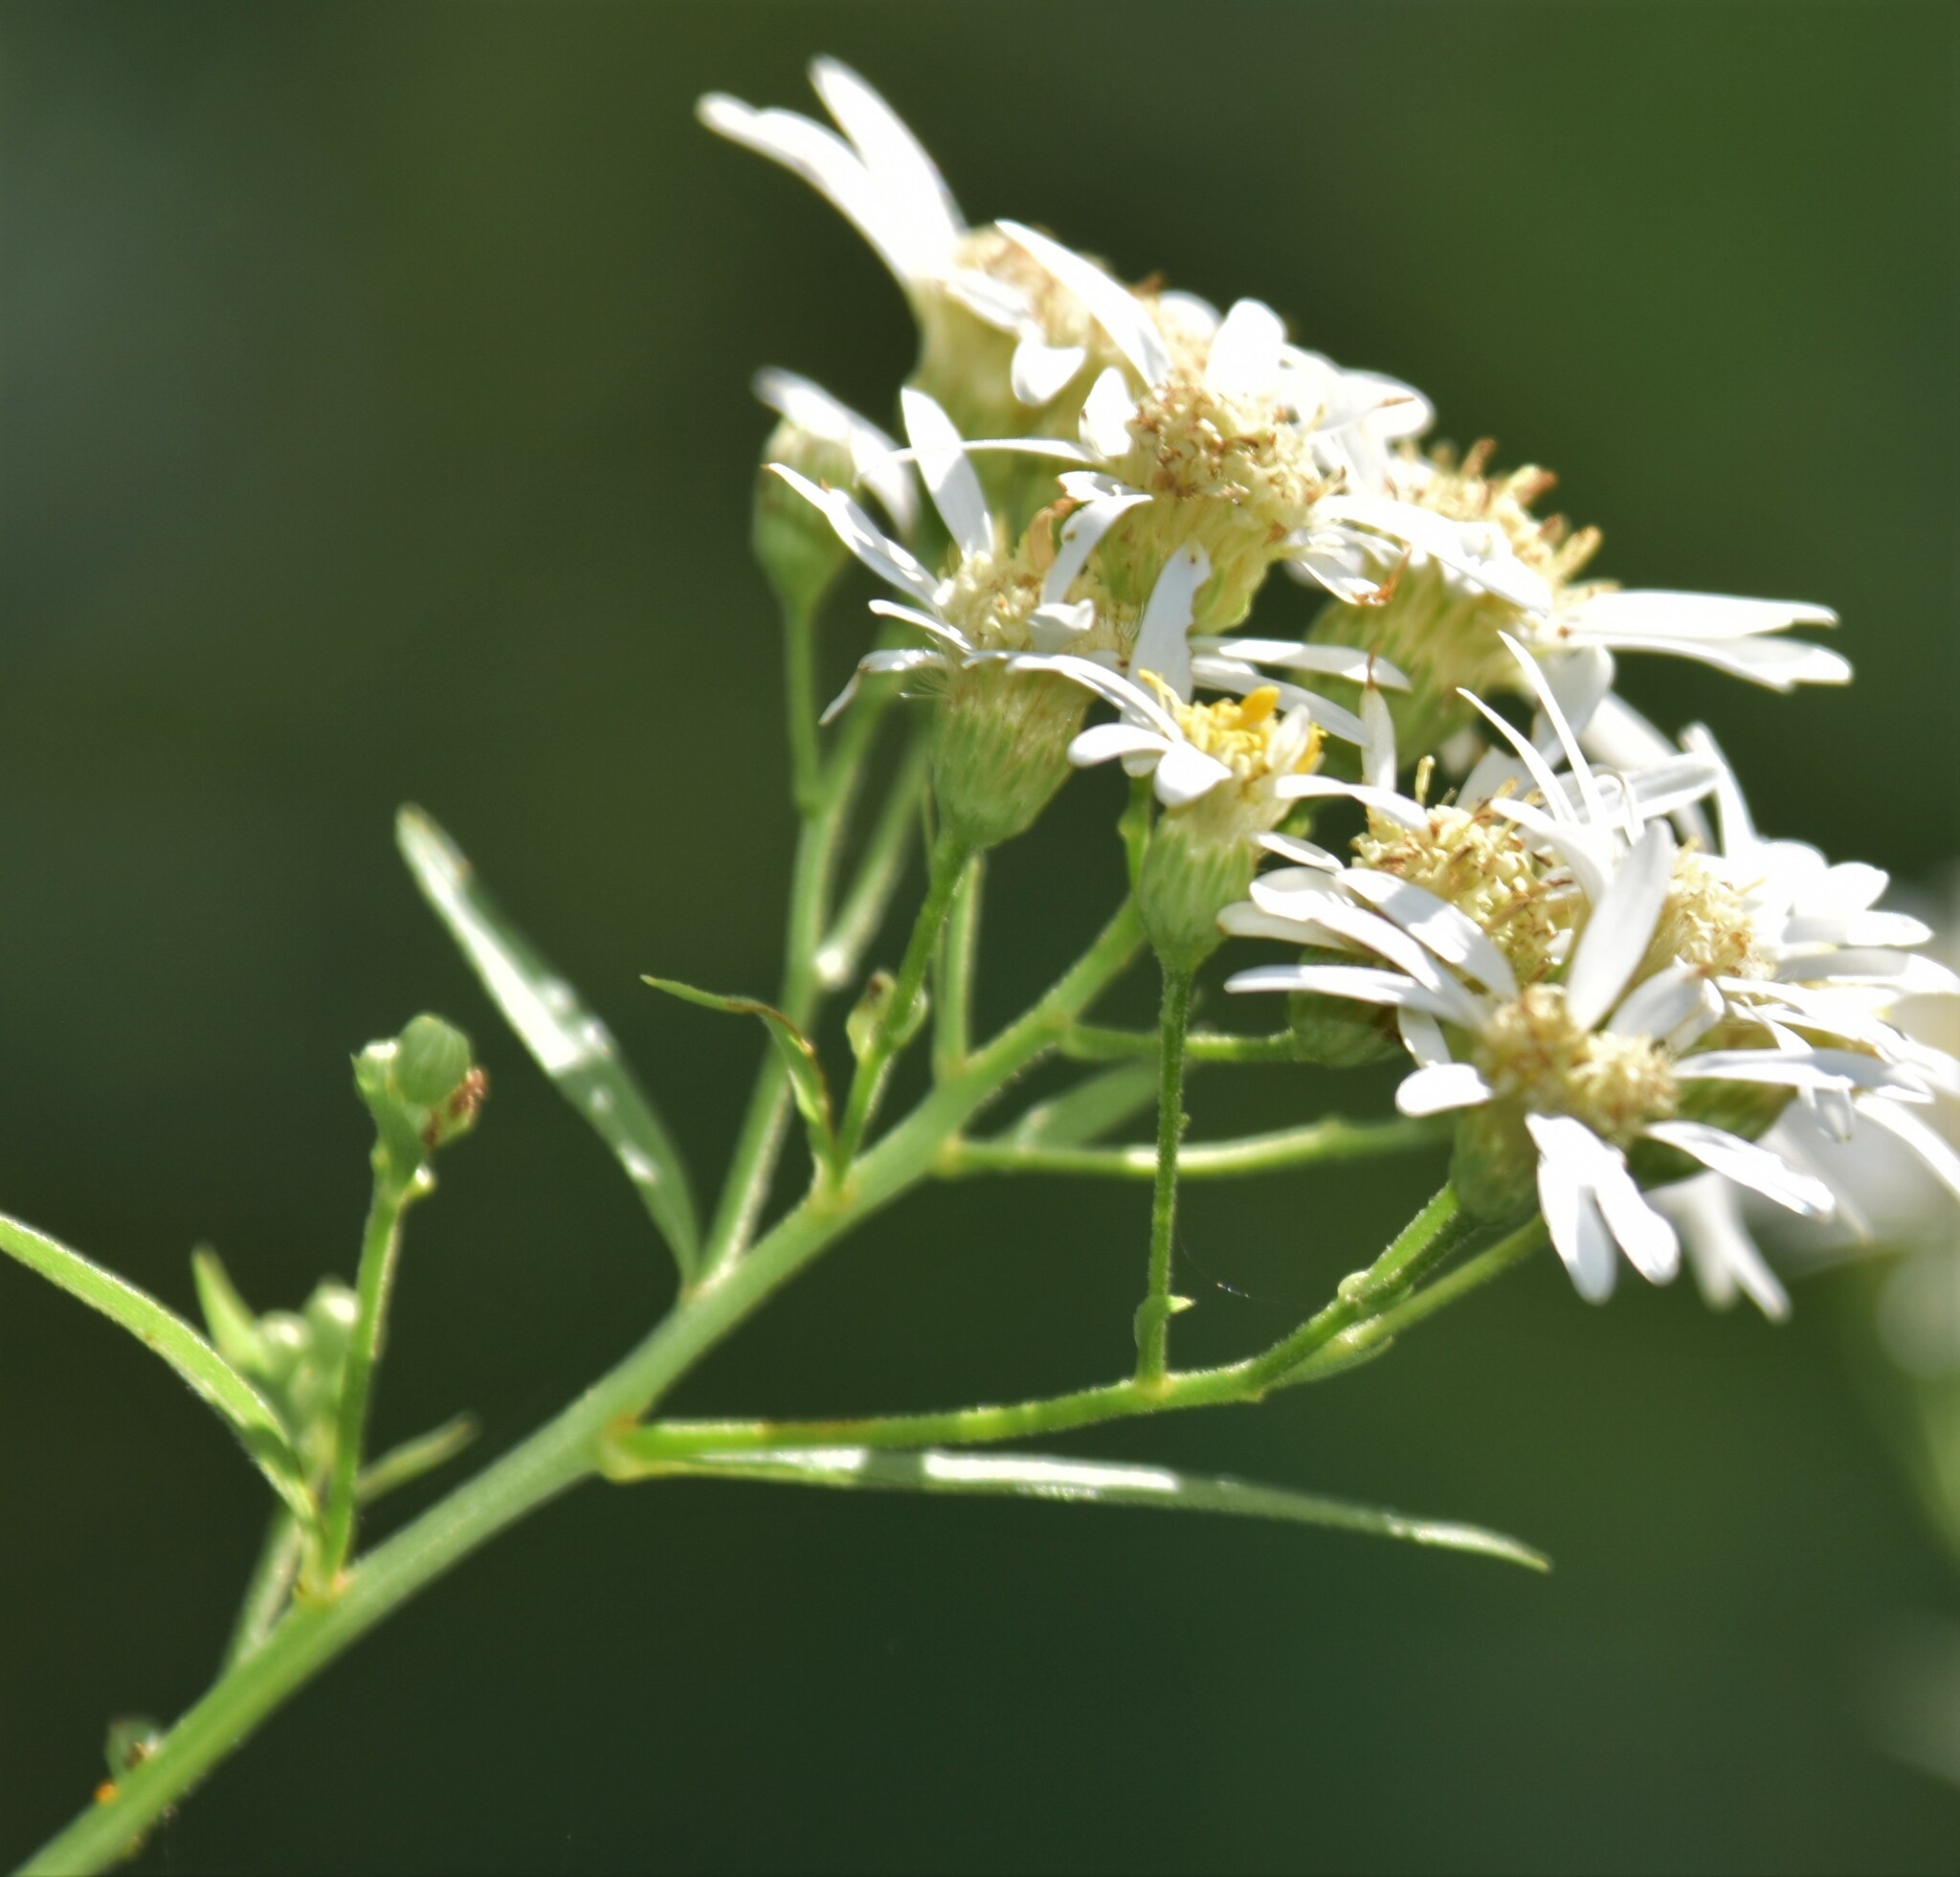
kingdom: Plantae
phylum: Tracheophyta
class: Magnoliopsida
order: Asterales
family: Asteraceae
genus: Doellingeria
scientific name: Doellingeria umbellata
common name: Flat-top white aster
